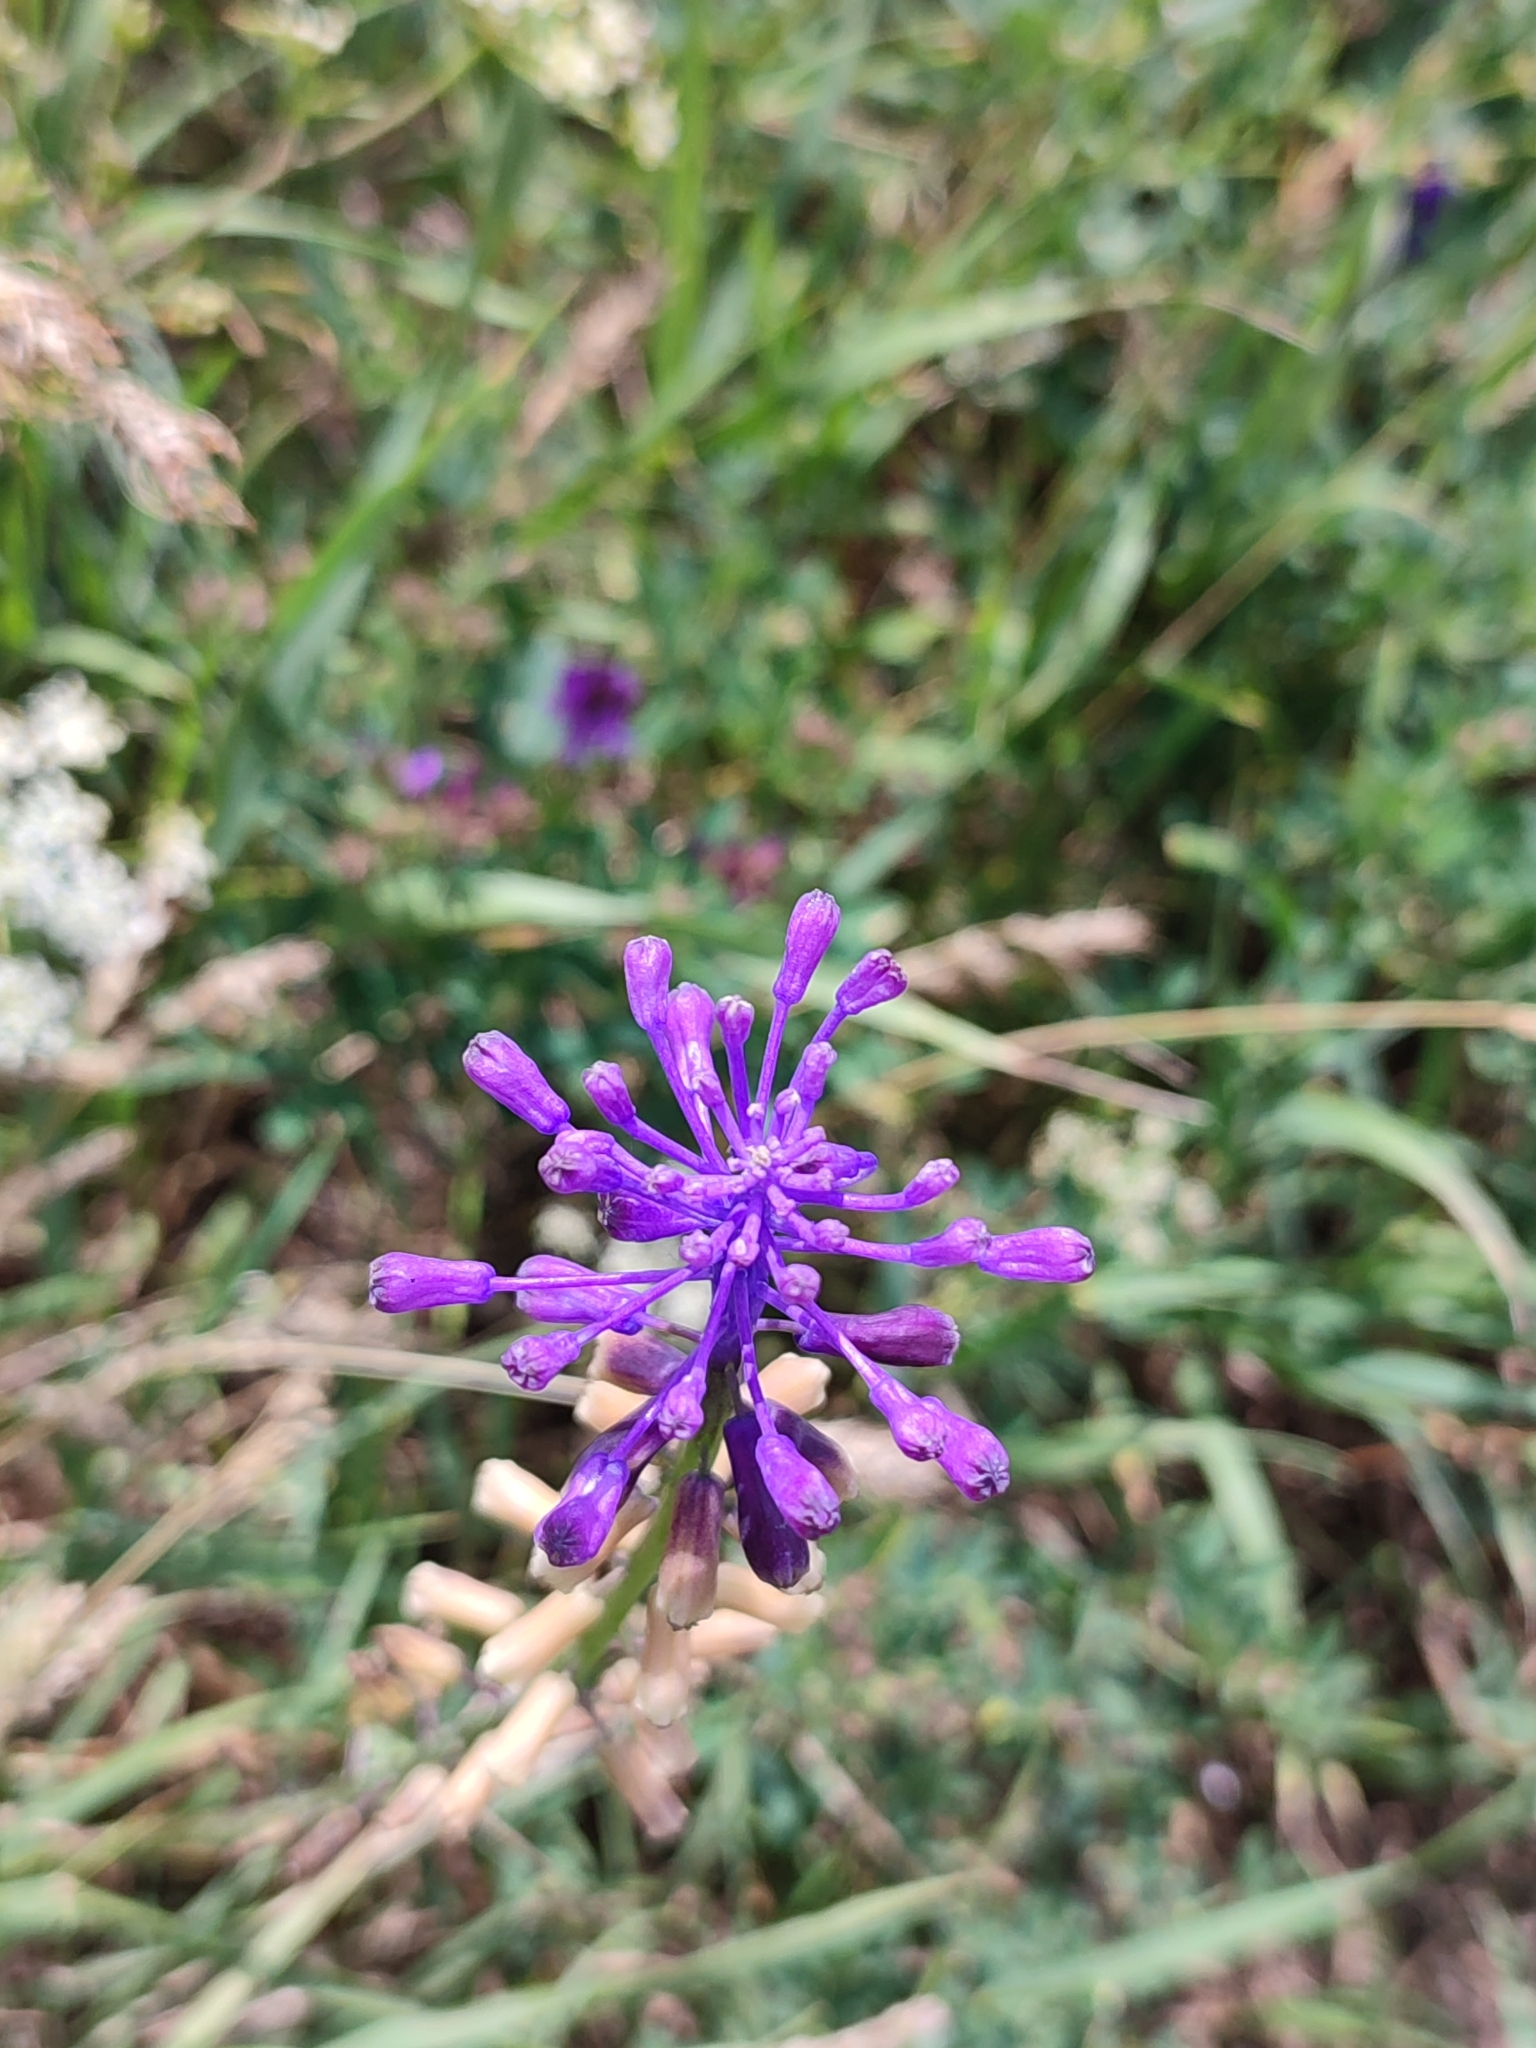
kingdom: Plantae
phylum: Tracheophyta
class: Liliopsida
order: Asparagales
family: Asparagaceae
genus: Muscari
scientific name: Muscari comosum
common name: Tassel hyacinth
